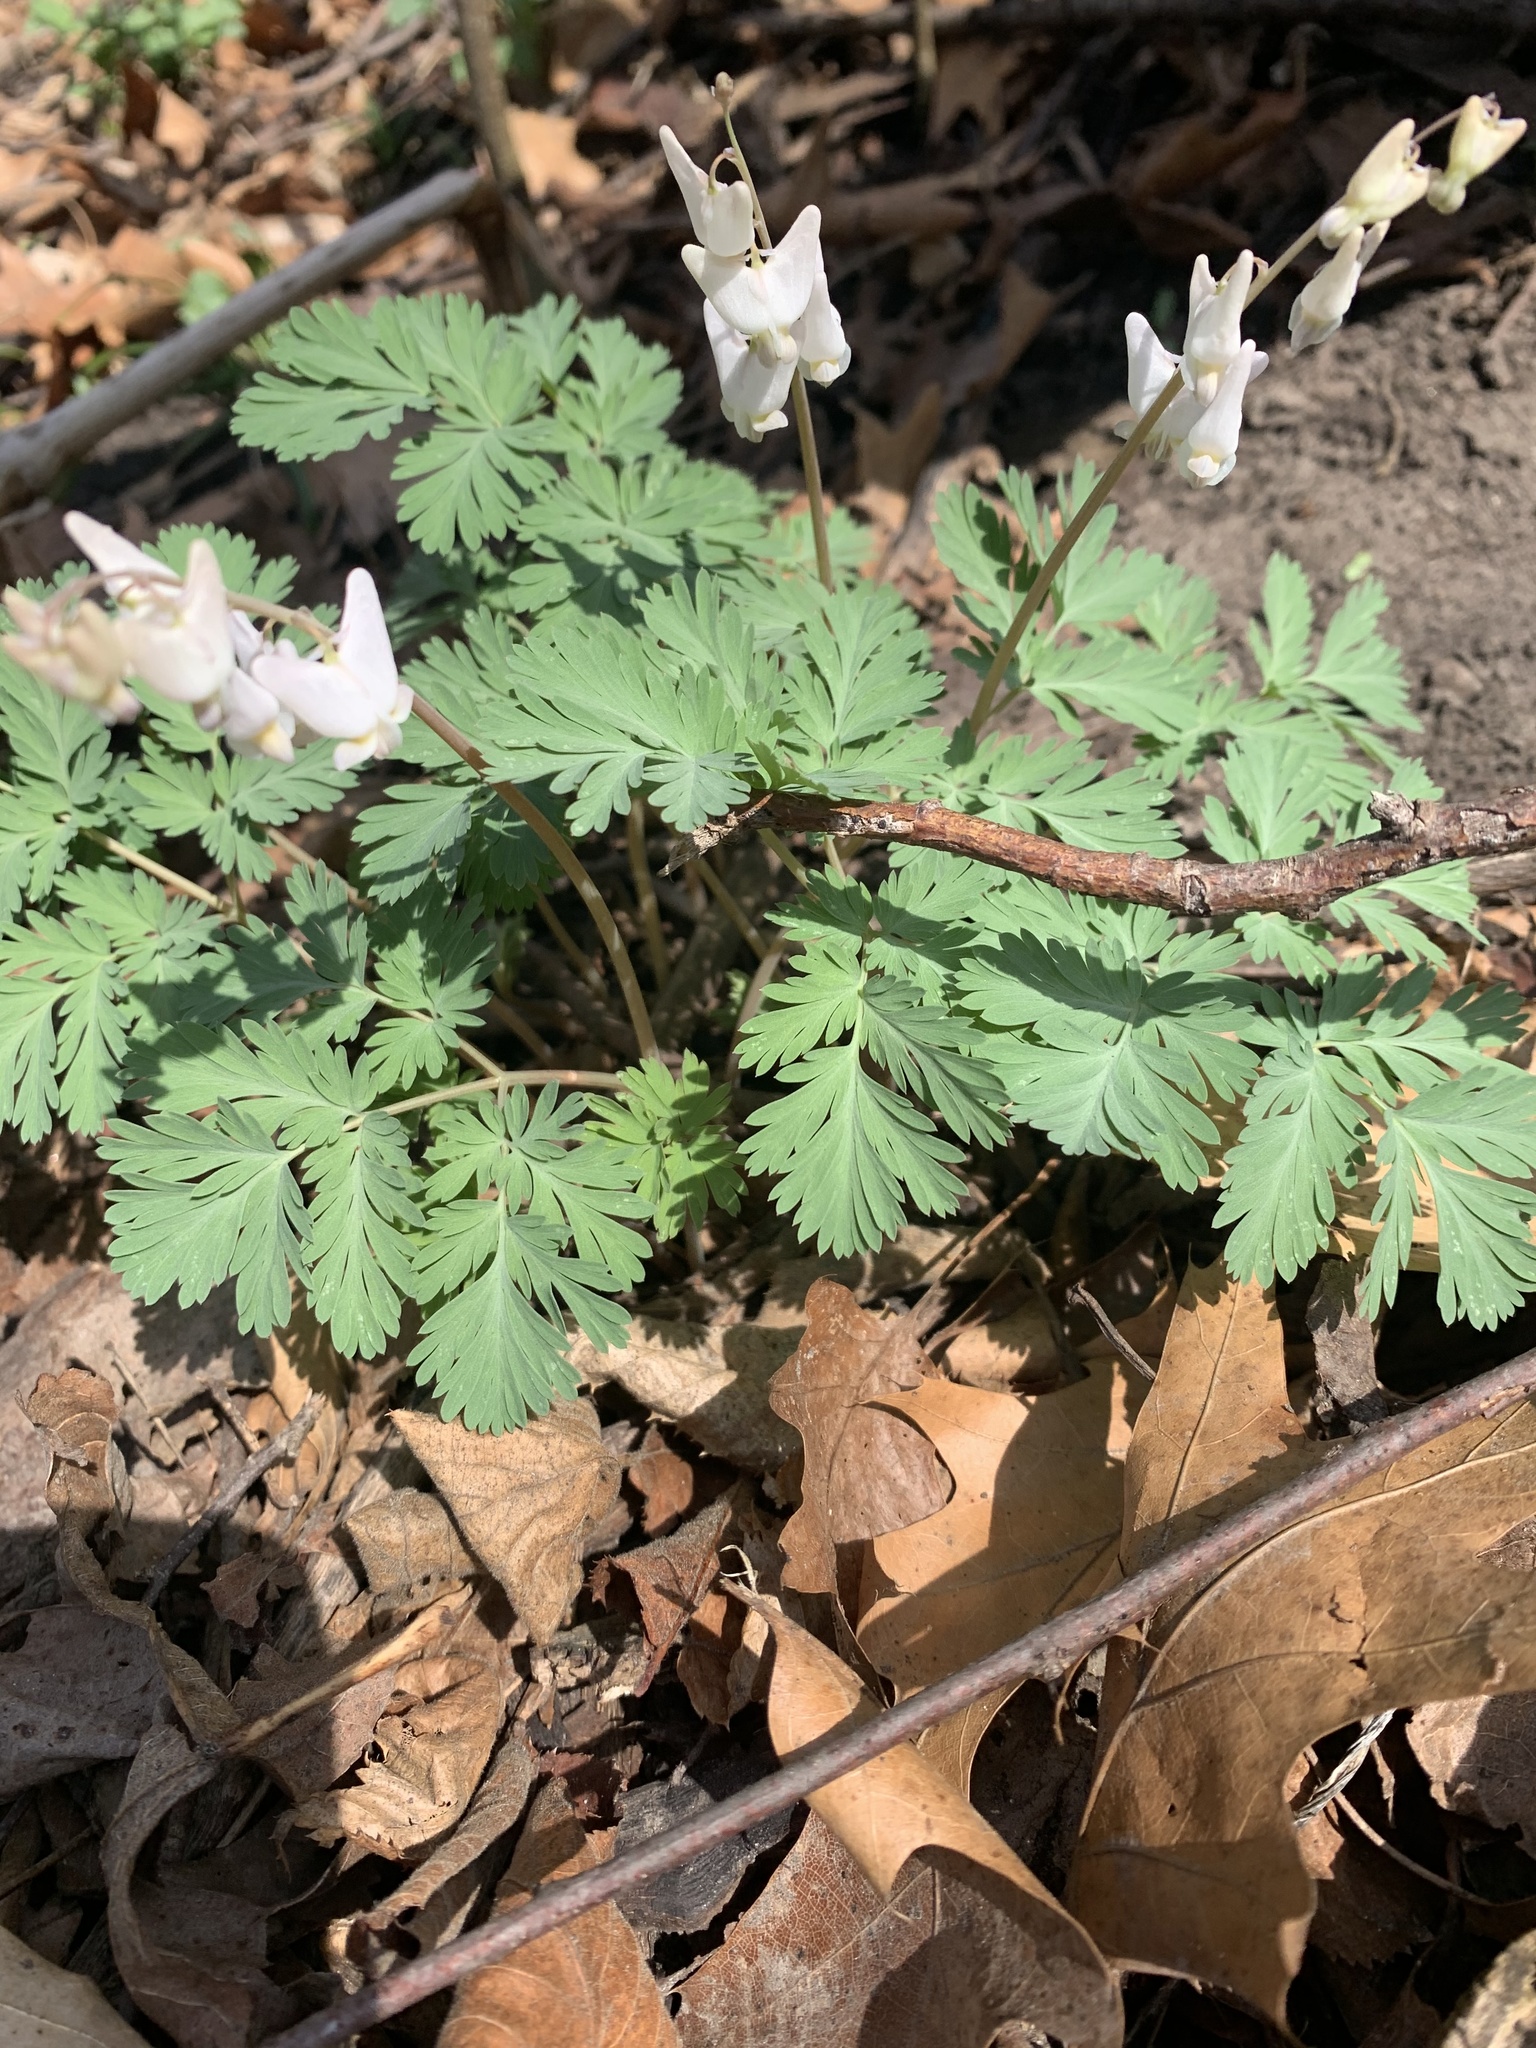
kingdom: Plantae
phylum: Tracheophyta
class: Magnoliopsida
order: Ranunculales
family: Papaveraceae
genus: Dicentra
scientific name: Dicentra cucullaria
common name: Dutchman's breeches
